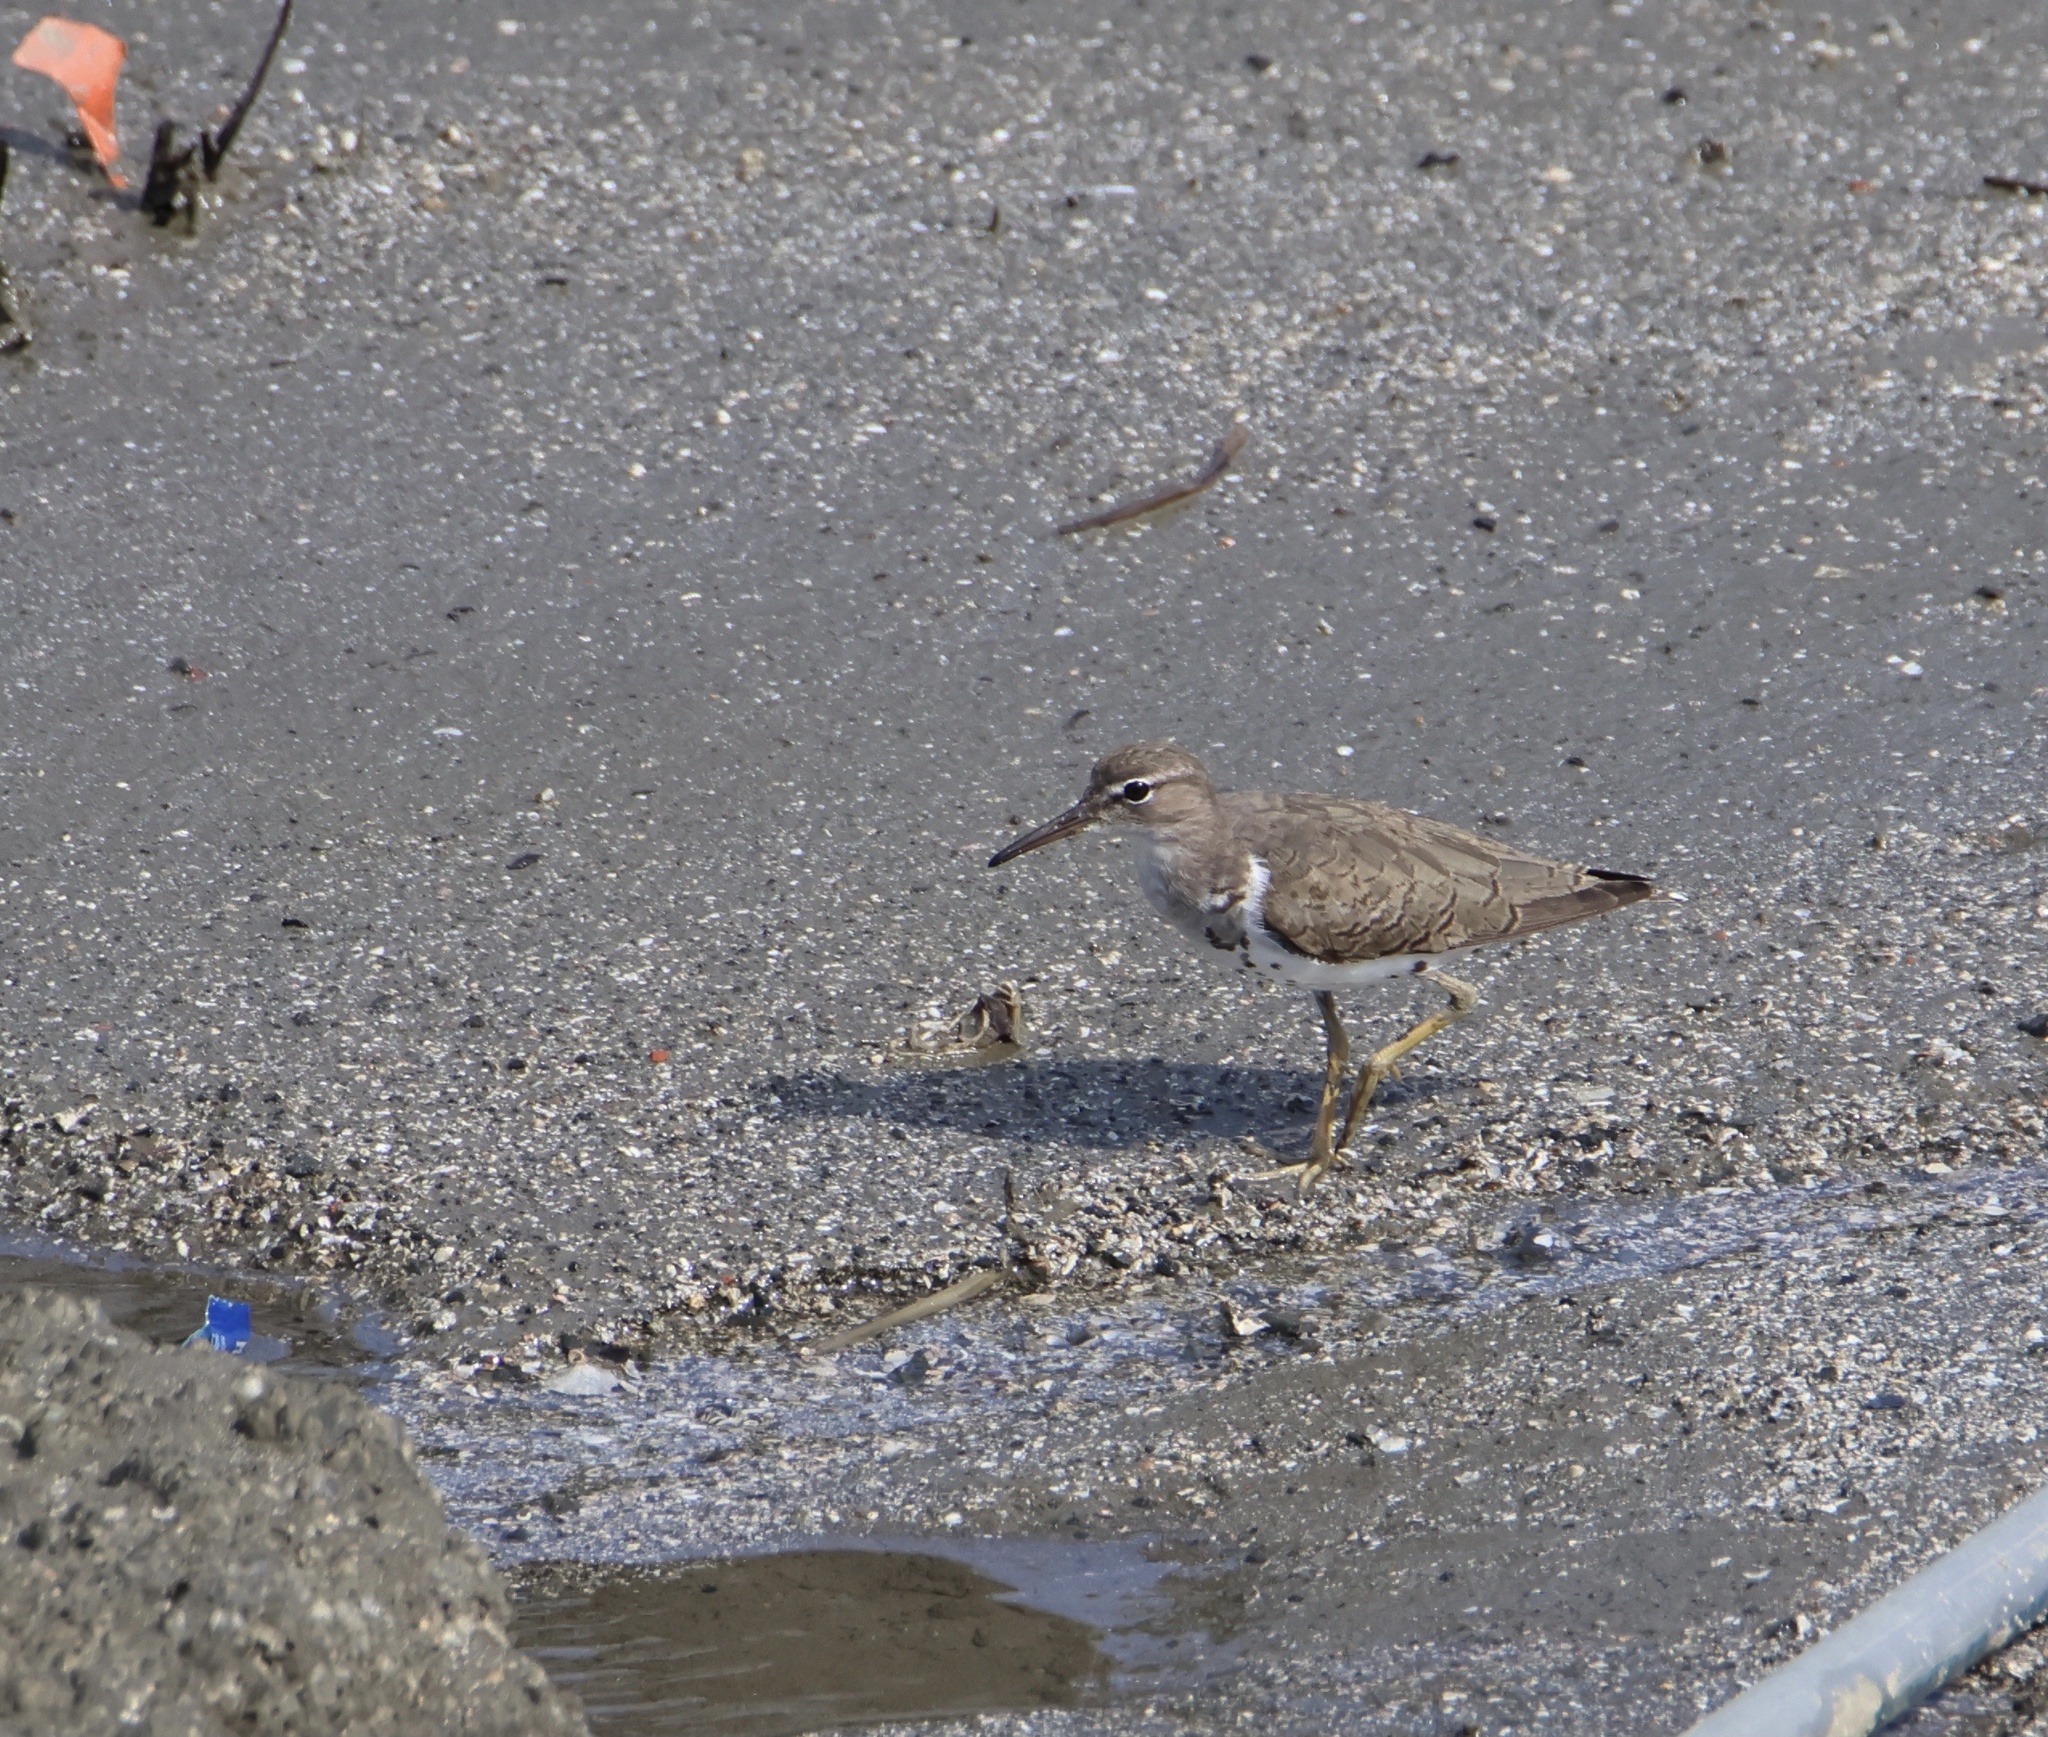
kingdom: Animalia
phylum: Chordata
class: Aves
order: Charadriiformes
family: Scolopacidae
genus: Actitis
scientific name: Actitis macularius
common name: Spotted sandpiper
